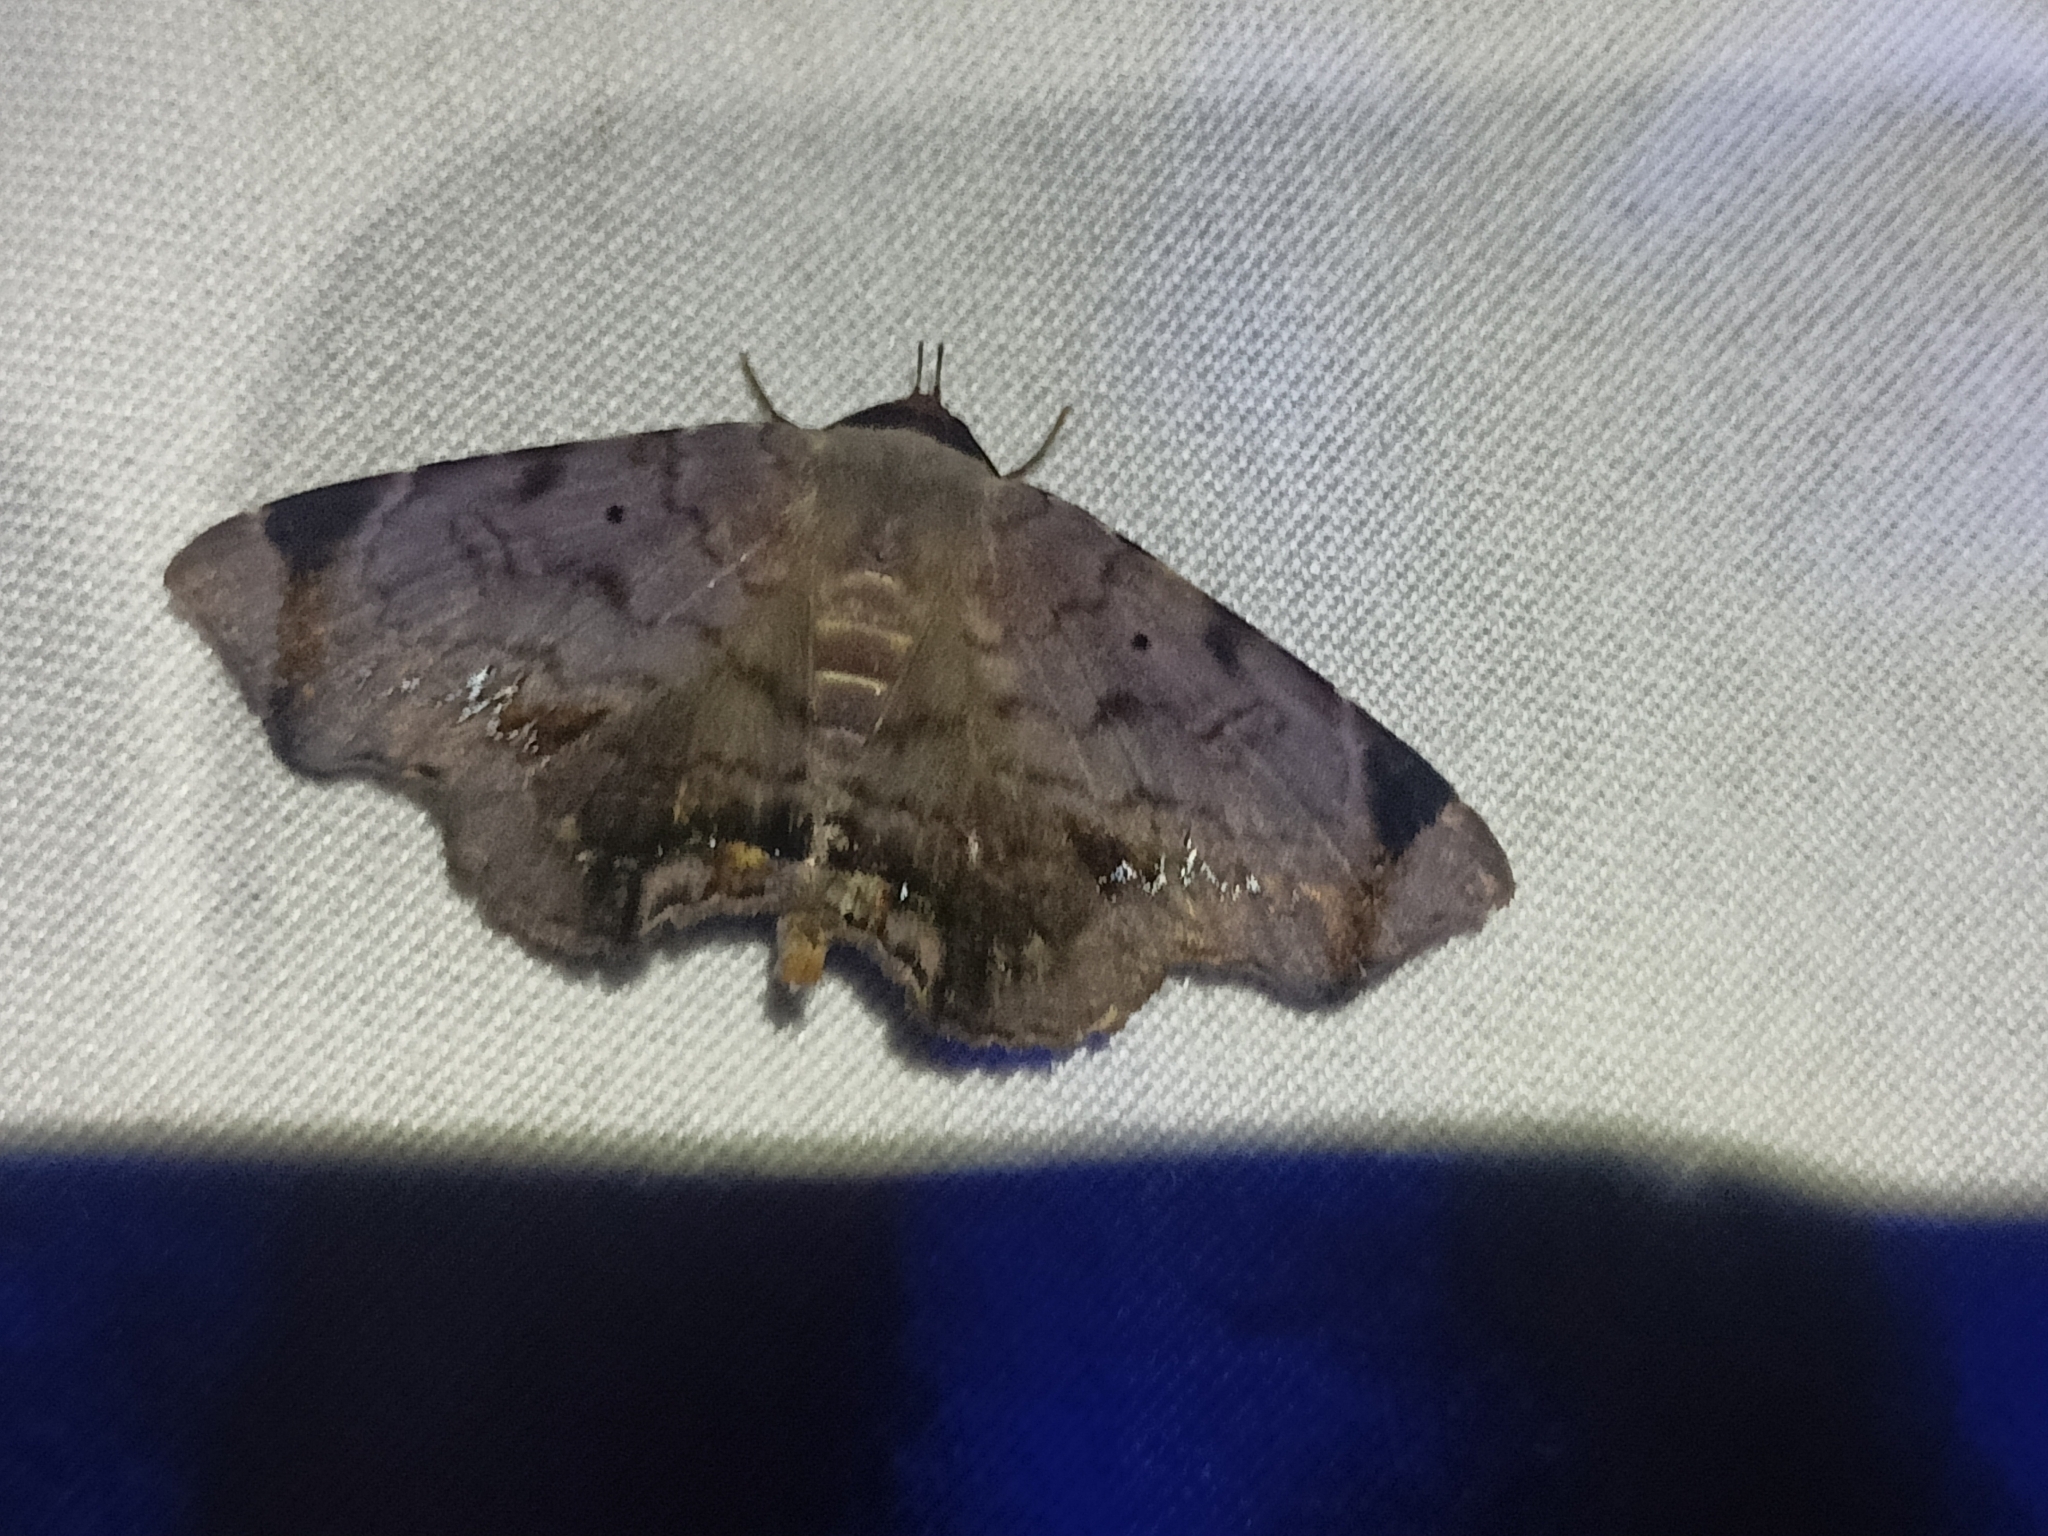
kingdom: Animalia
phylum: Arthropoda
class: Insecta
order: Lepidoptera
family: Erebidae
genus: Mecodina
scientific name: Mecodina albodentata
